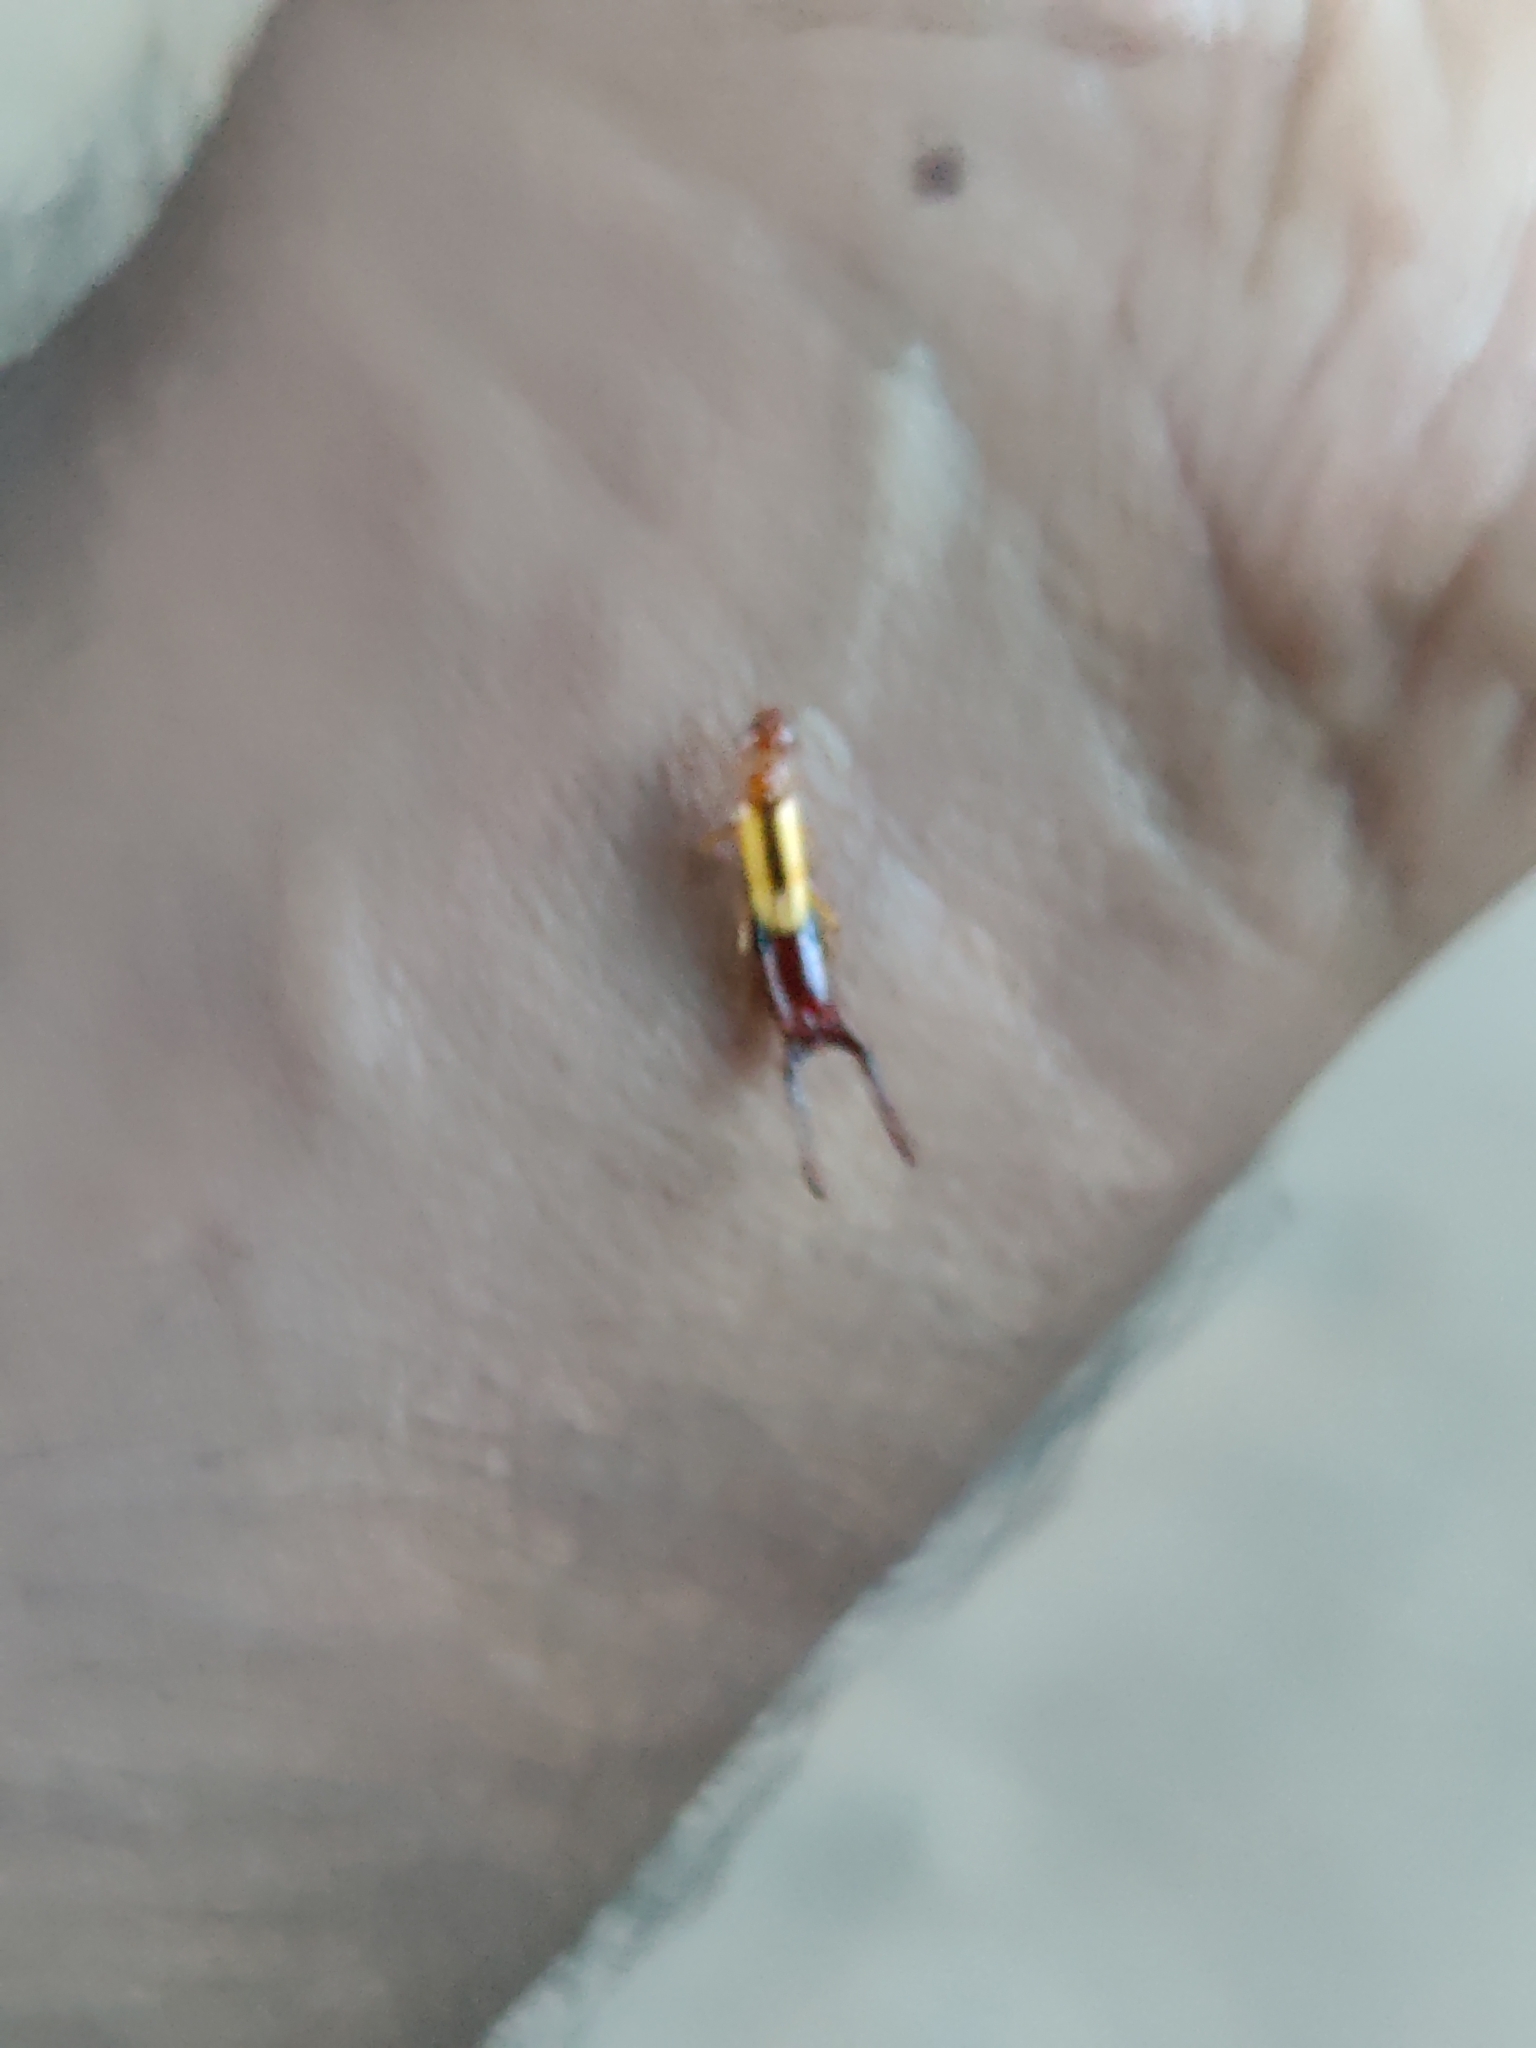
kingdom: Animalia
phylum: Arthropoda
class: Insecta
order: Dermaptera
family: Forficulidae
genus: Elaunon
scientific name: Elaunon bipartitus
